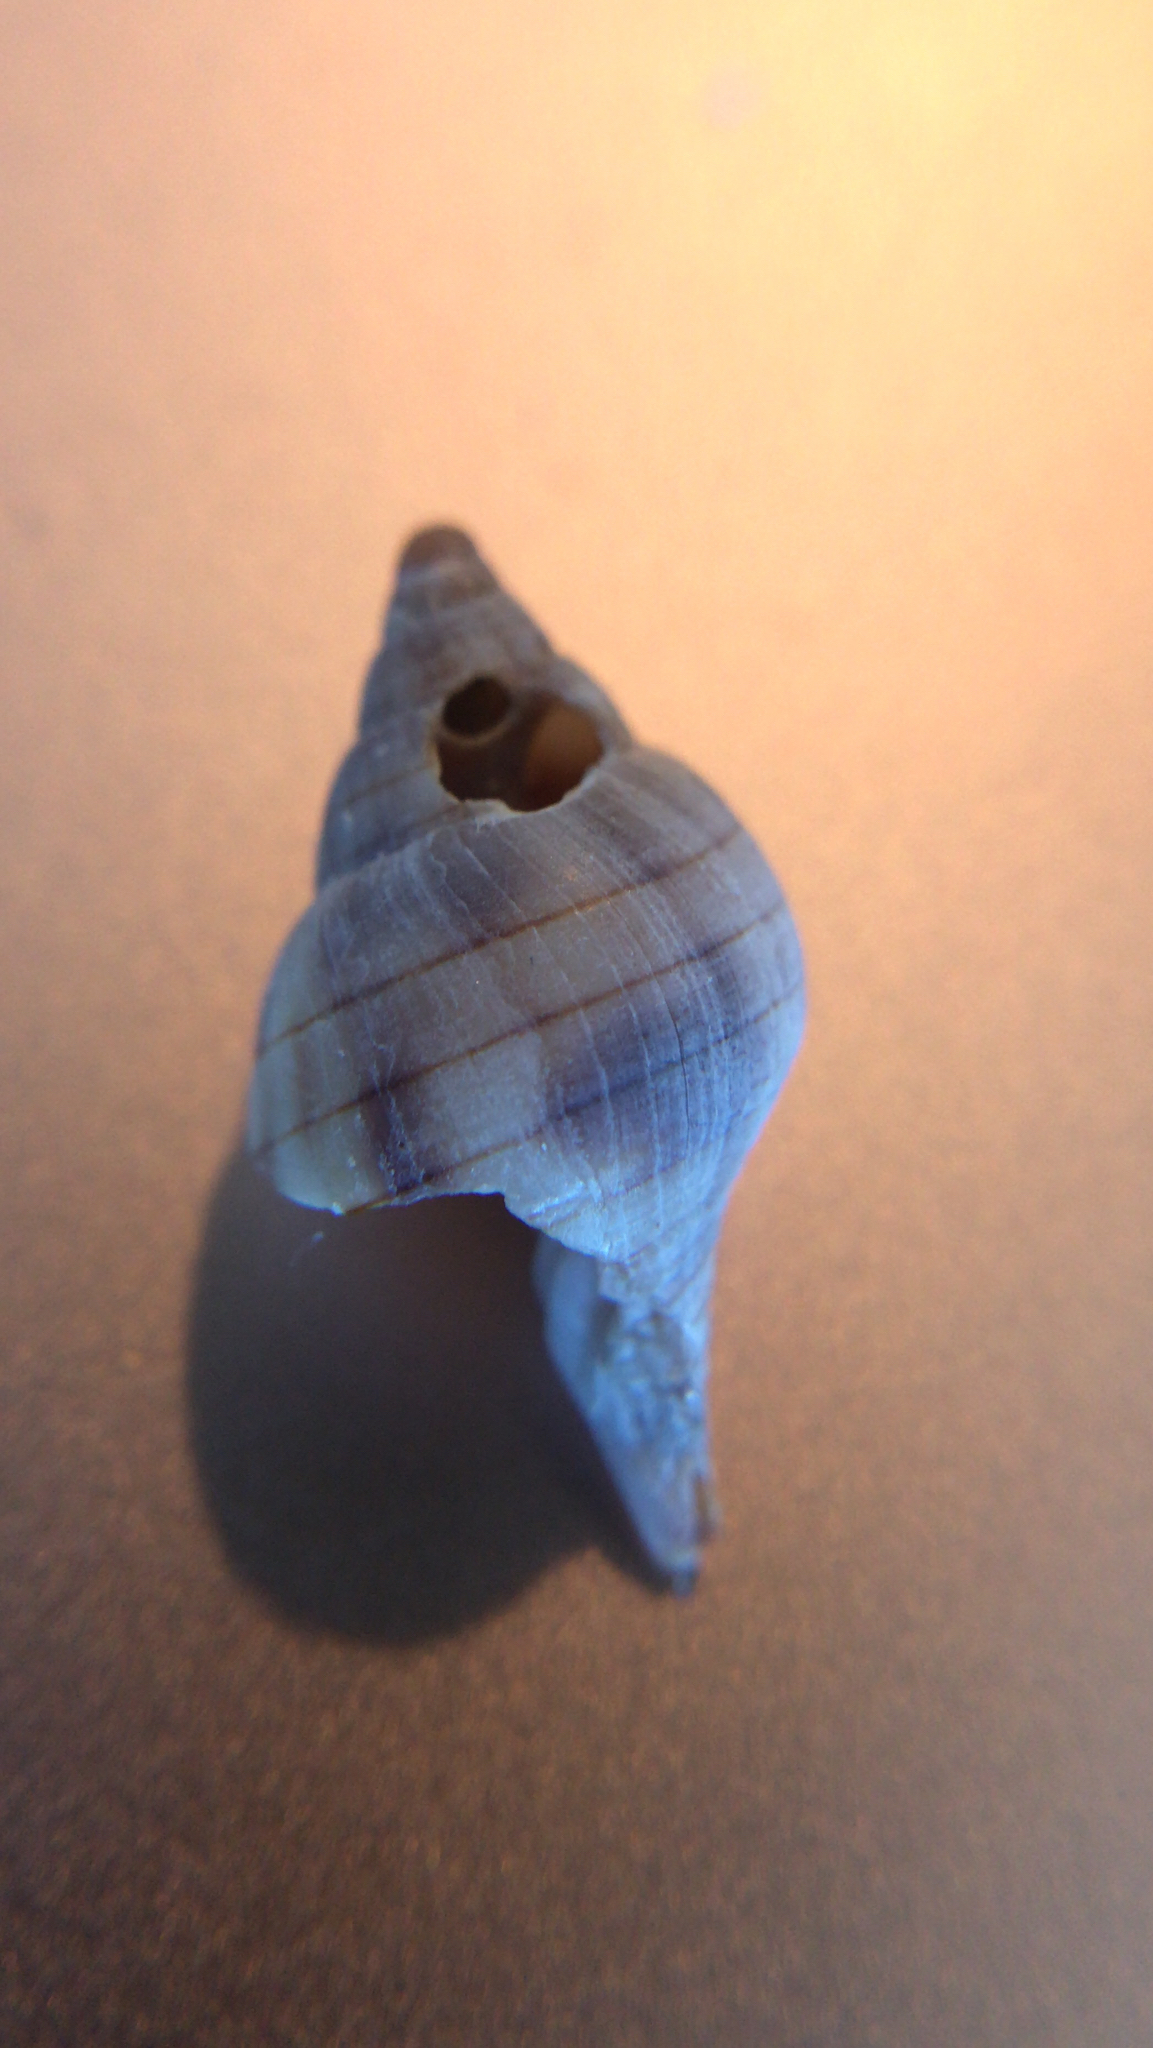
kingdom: Animalia
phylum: Mollusca
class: Gastropoda
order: Neogastropoda
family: Fasciolariidae
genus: Cinctura
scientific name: Cinctura hunteria
